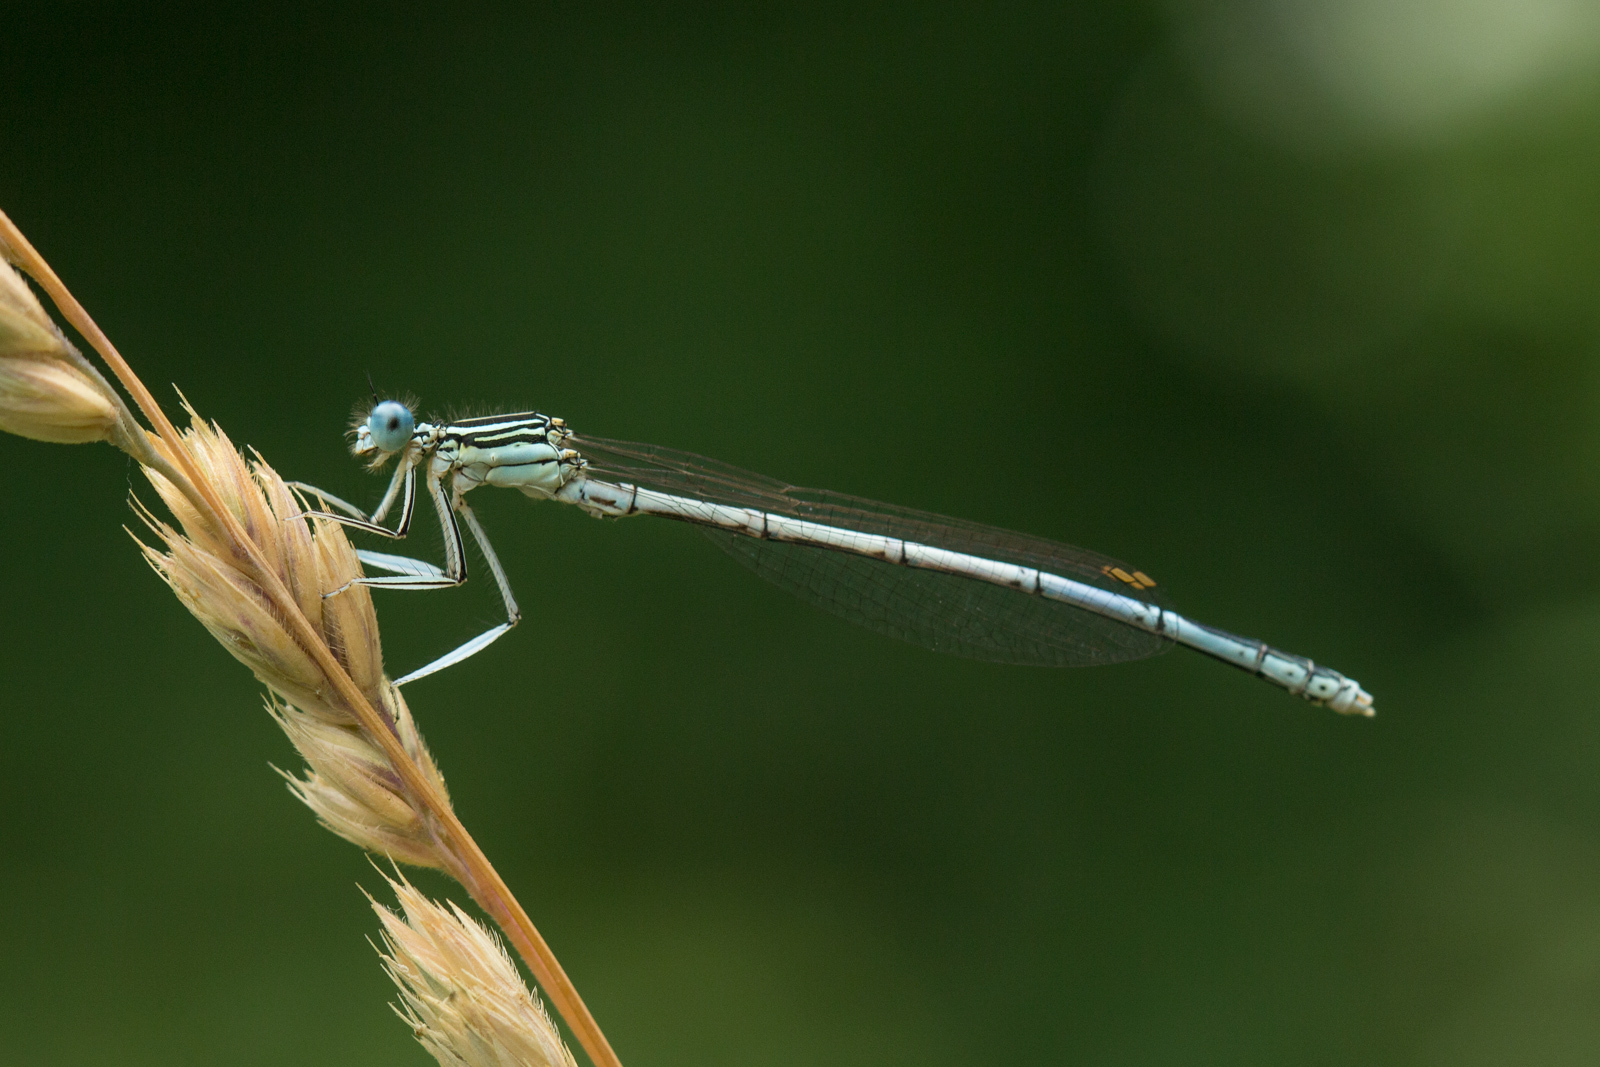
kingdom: Animalia
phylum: Arthropoda
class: Insecta
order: Odonata
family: Platycnemididae
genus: Platycnemis
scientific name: Platycnemis pennipes
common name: White-legged damselfly
